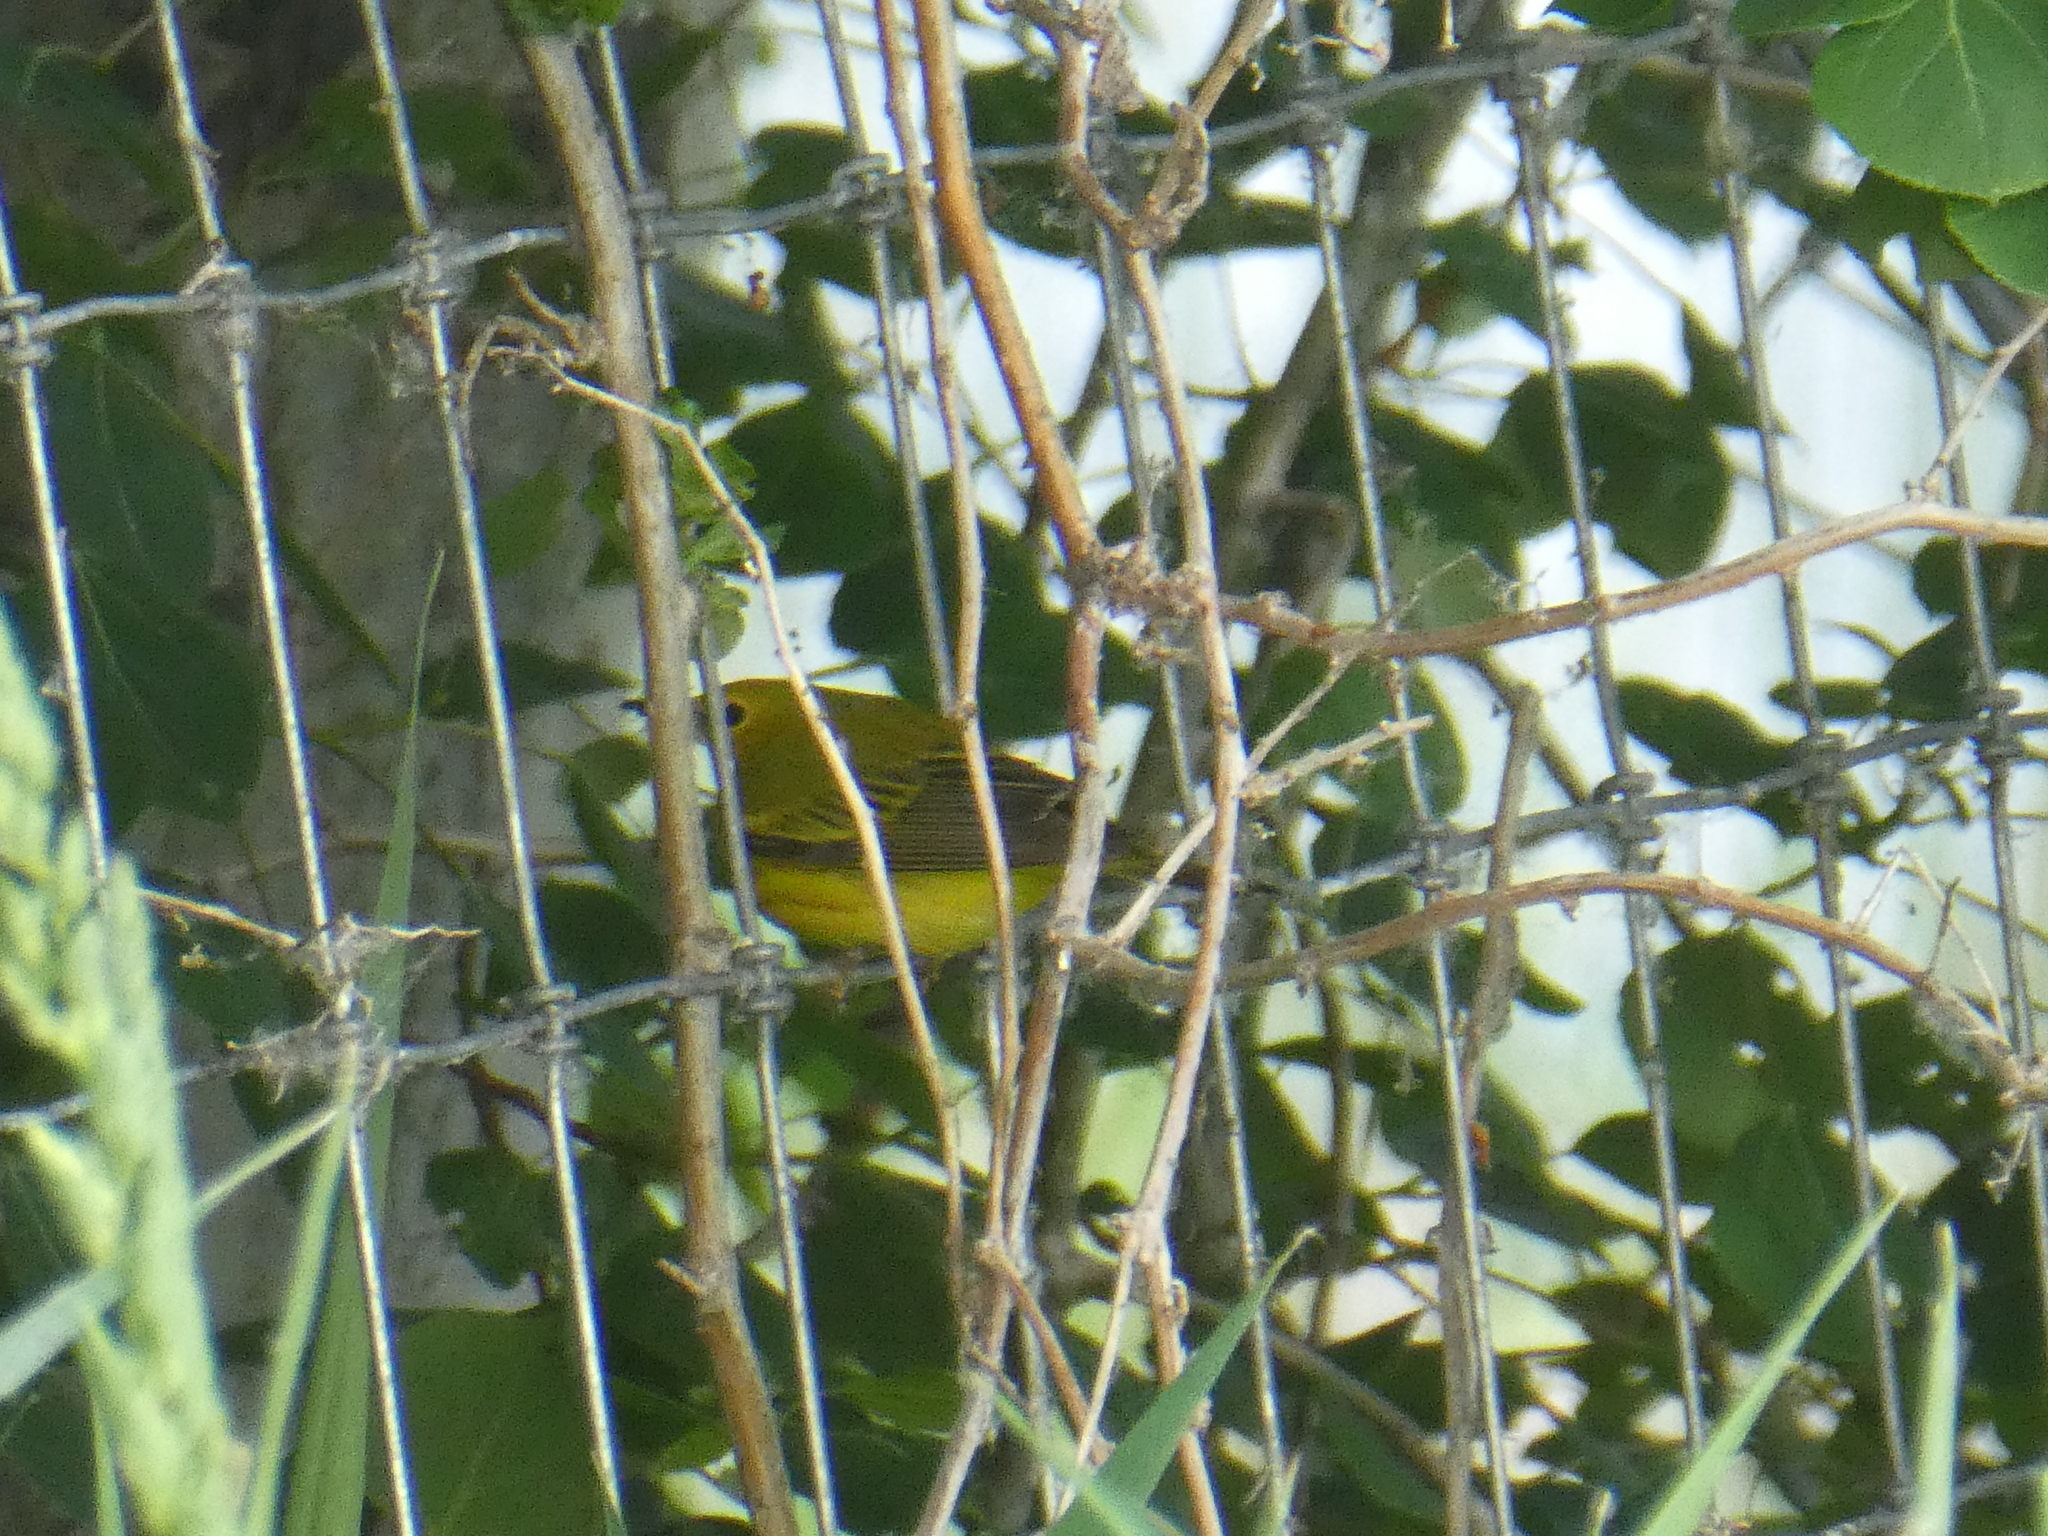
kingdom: Animalia
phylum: Chordata
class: Aves
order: Passeriformes
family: Parulidae
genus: Setophaga
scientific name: Setophaga petechia
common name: Yellow warbler
